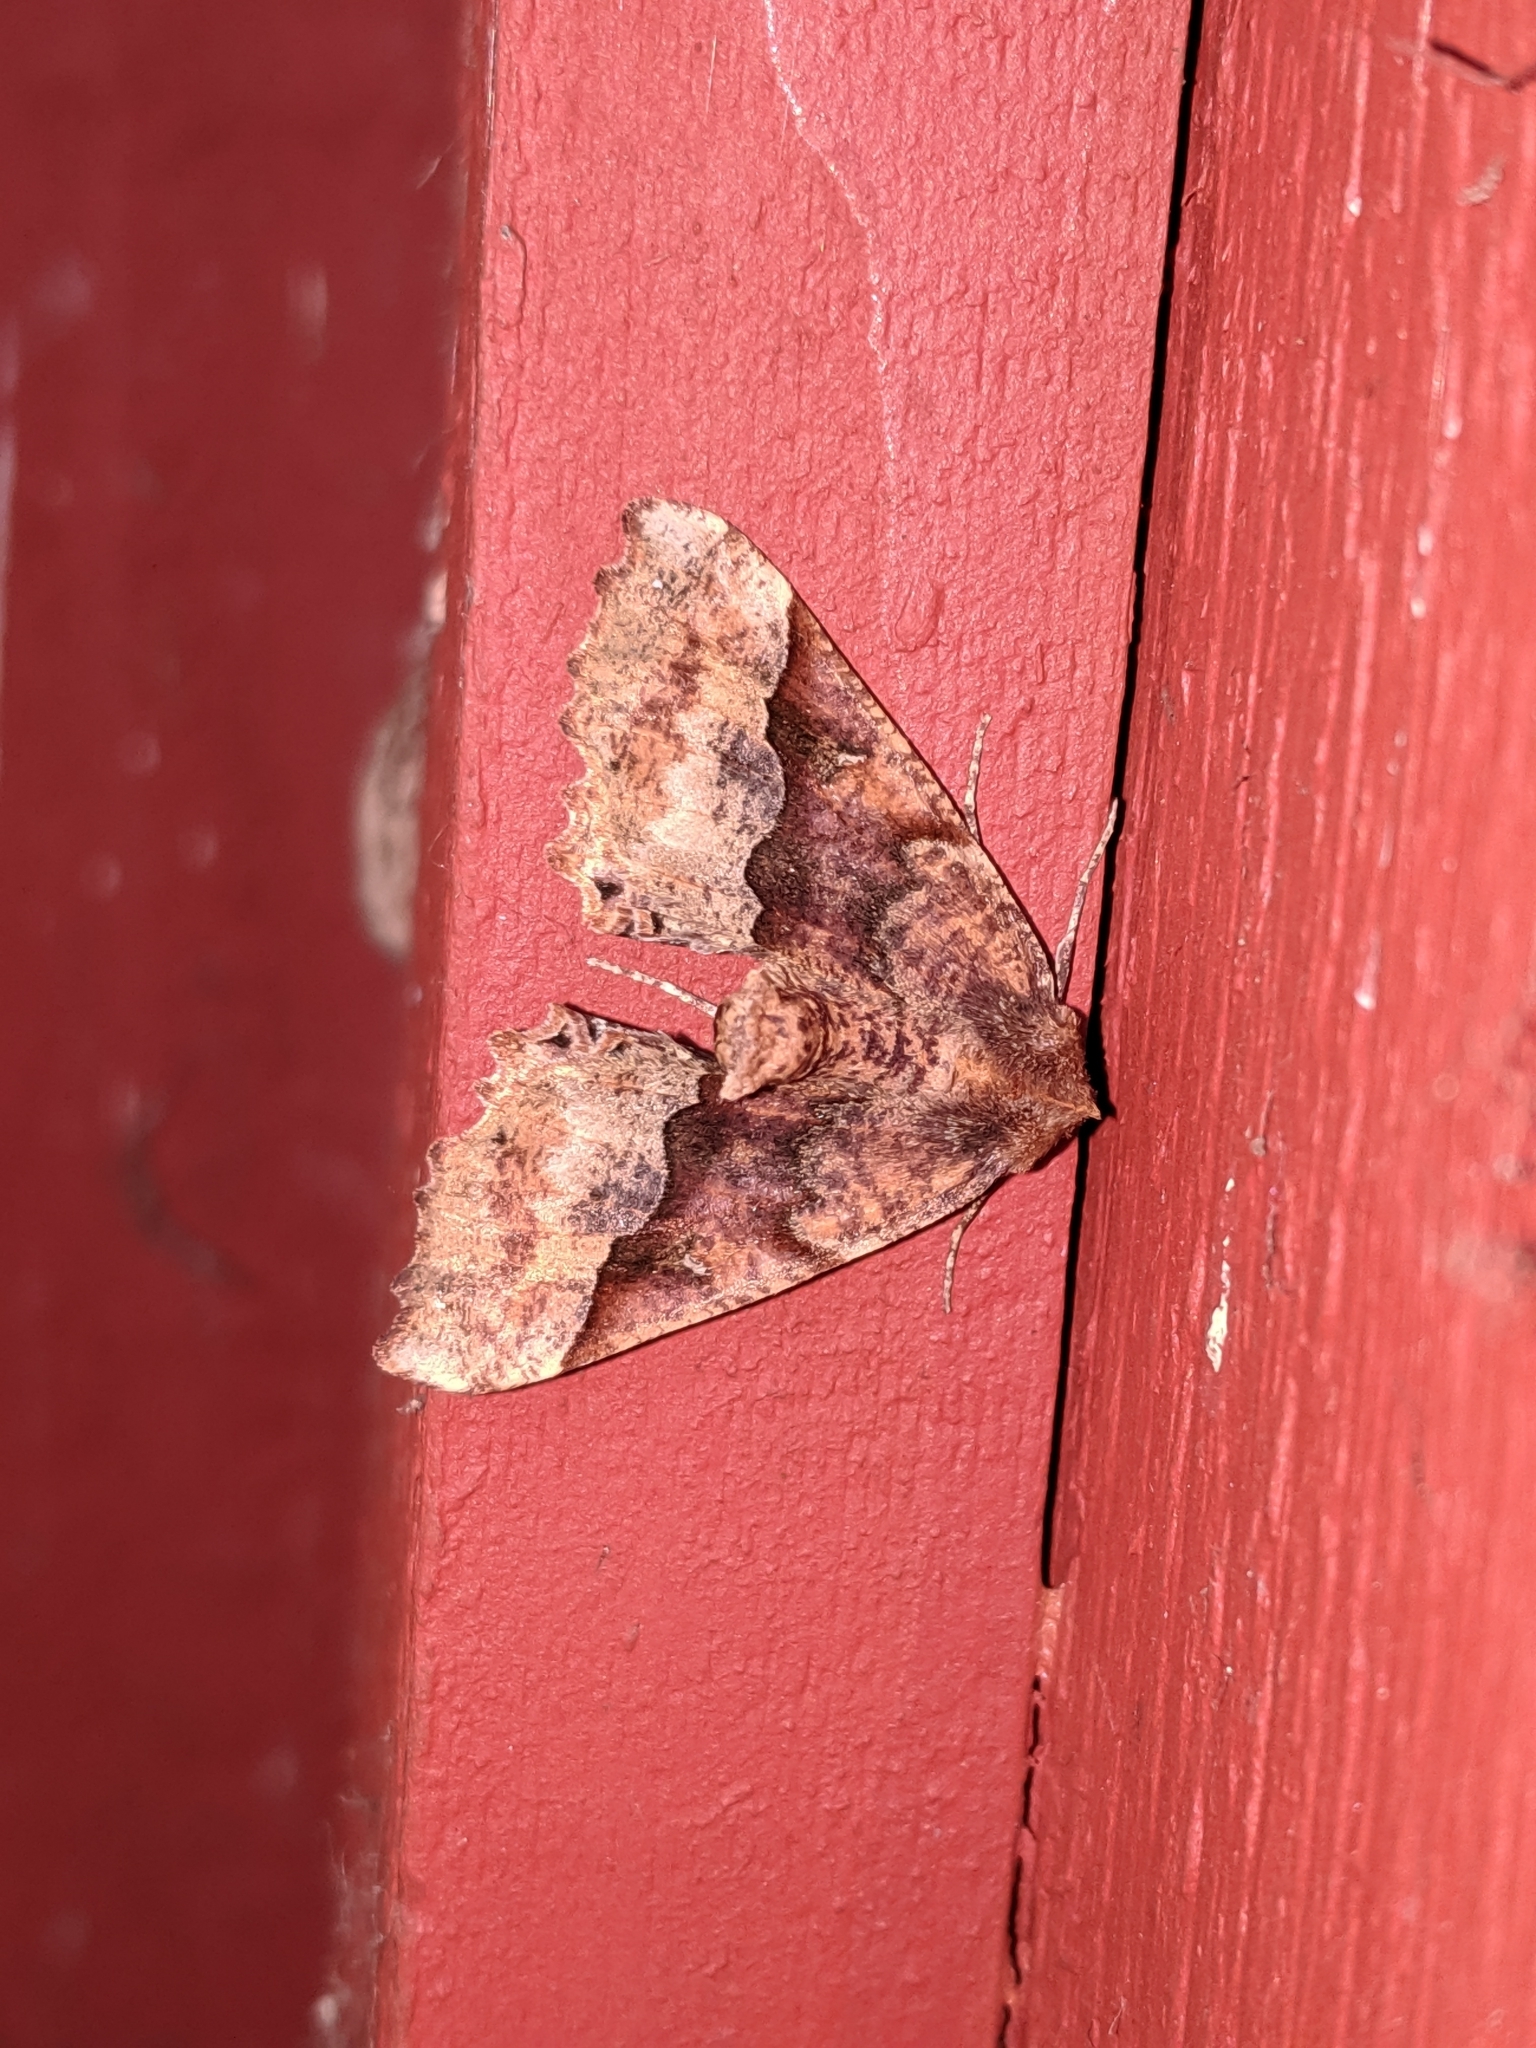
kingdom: Animalia
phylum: Arthropoda
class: Insecta
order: Lepidoptera
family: Geometridae
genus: Pero
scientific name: Pero morrisonaria
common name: Morrison's pero
